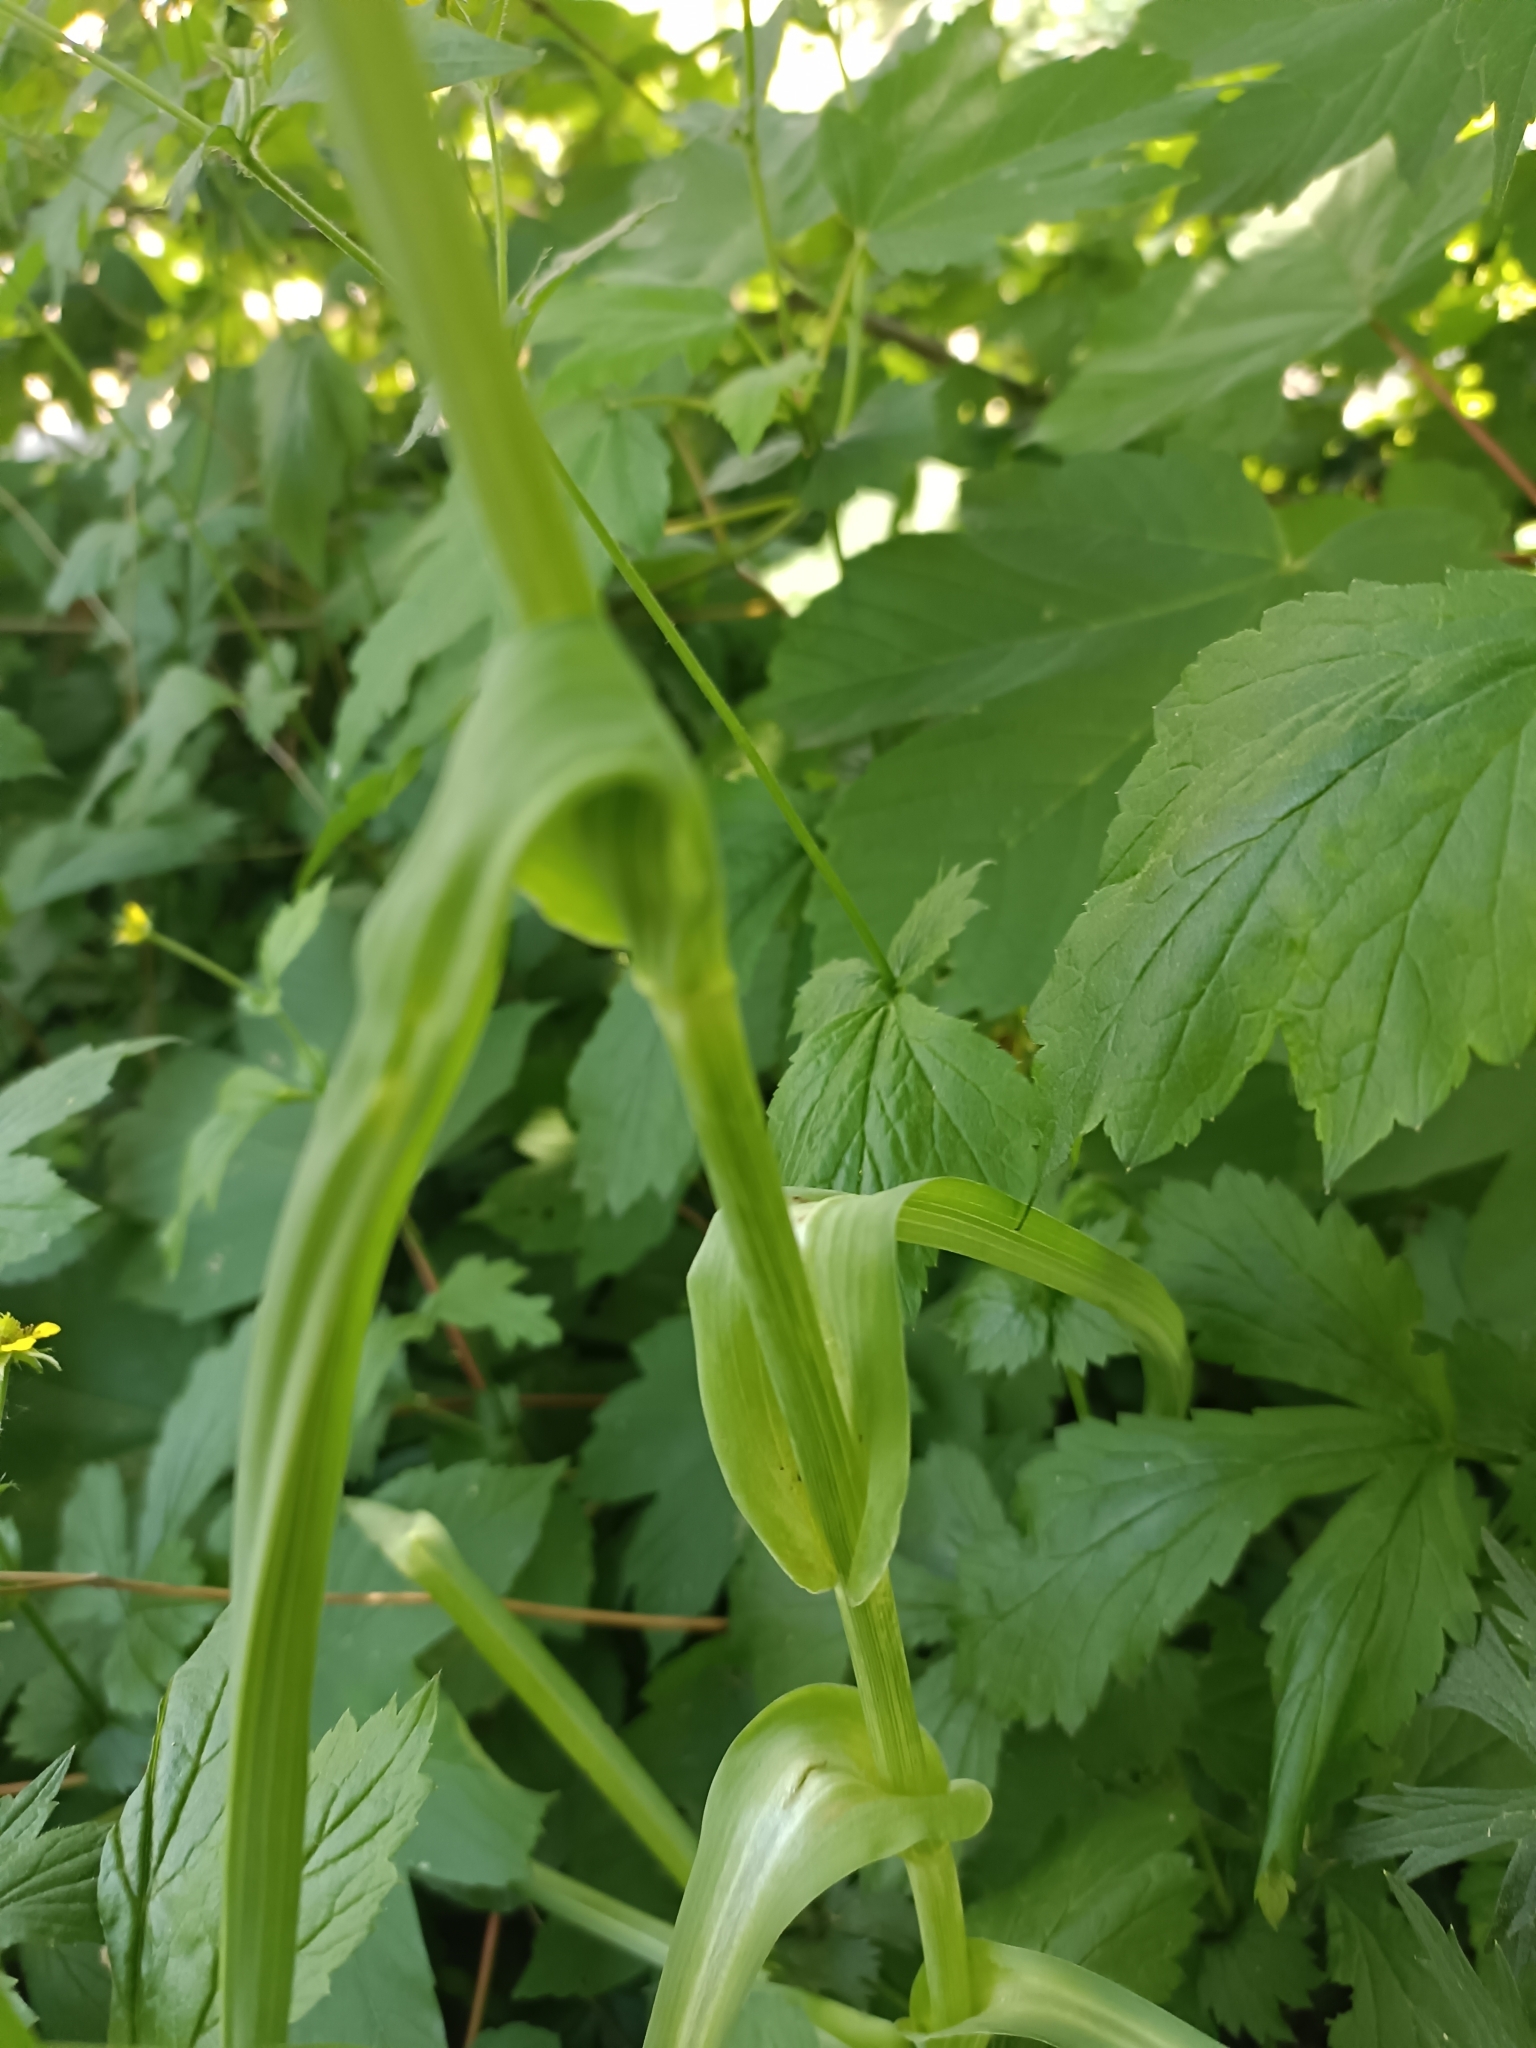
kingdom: Plantae
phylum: Tracheophyta
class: Magnoliopsida
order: Asterales
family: Asteraceae
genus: Tragopogon
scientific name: Tragopogon porrifolius
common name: Salsify
